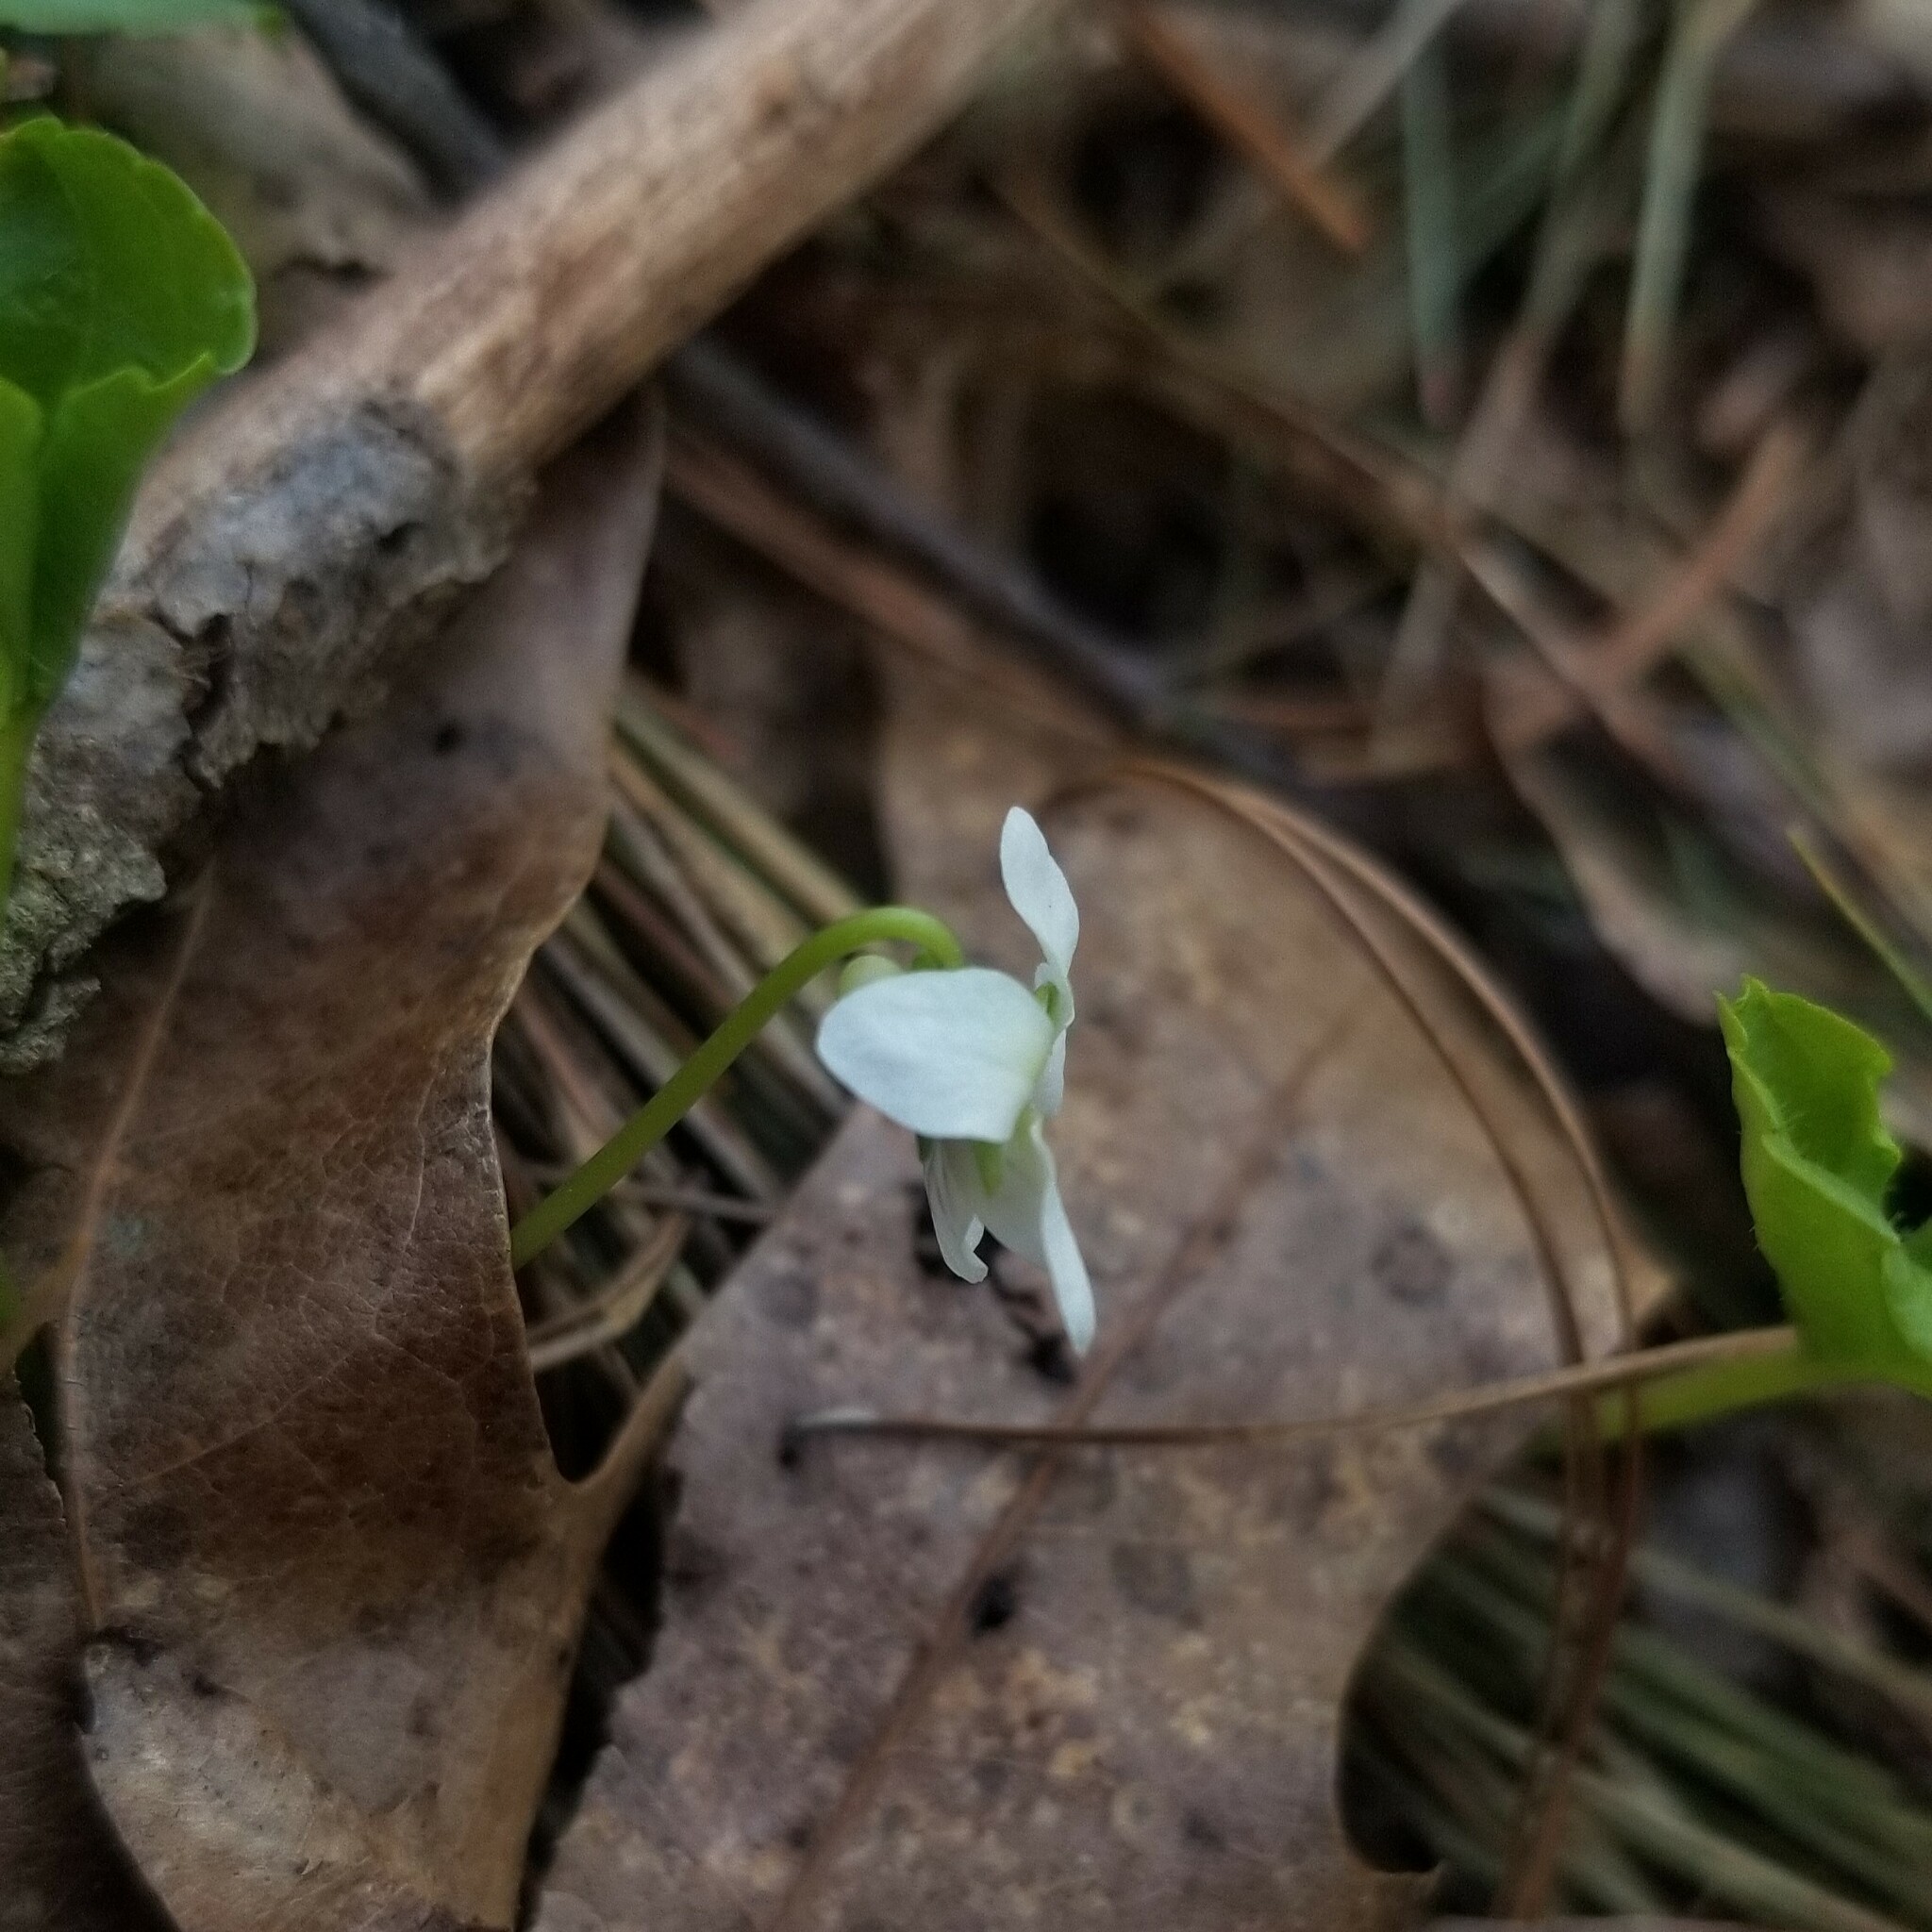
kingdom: Plantae
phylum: Tracheophyta
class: Magnoliopsida
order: Malpighiales
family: Violaceae
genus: Viola
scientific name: Viola incognita
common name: Largeleaf white violet
